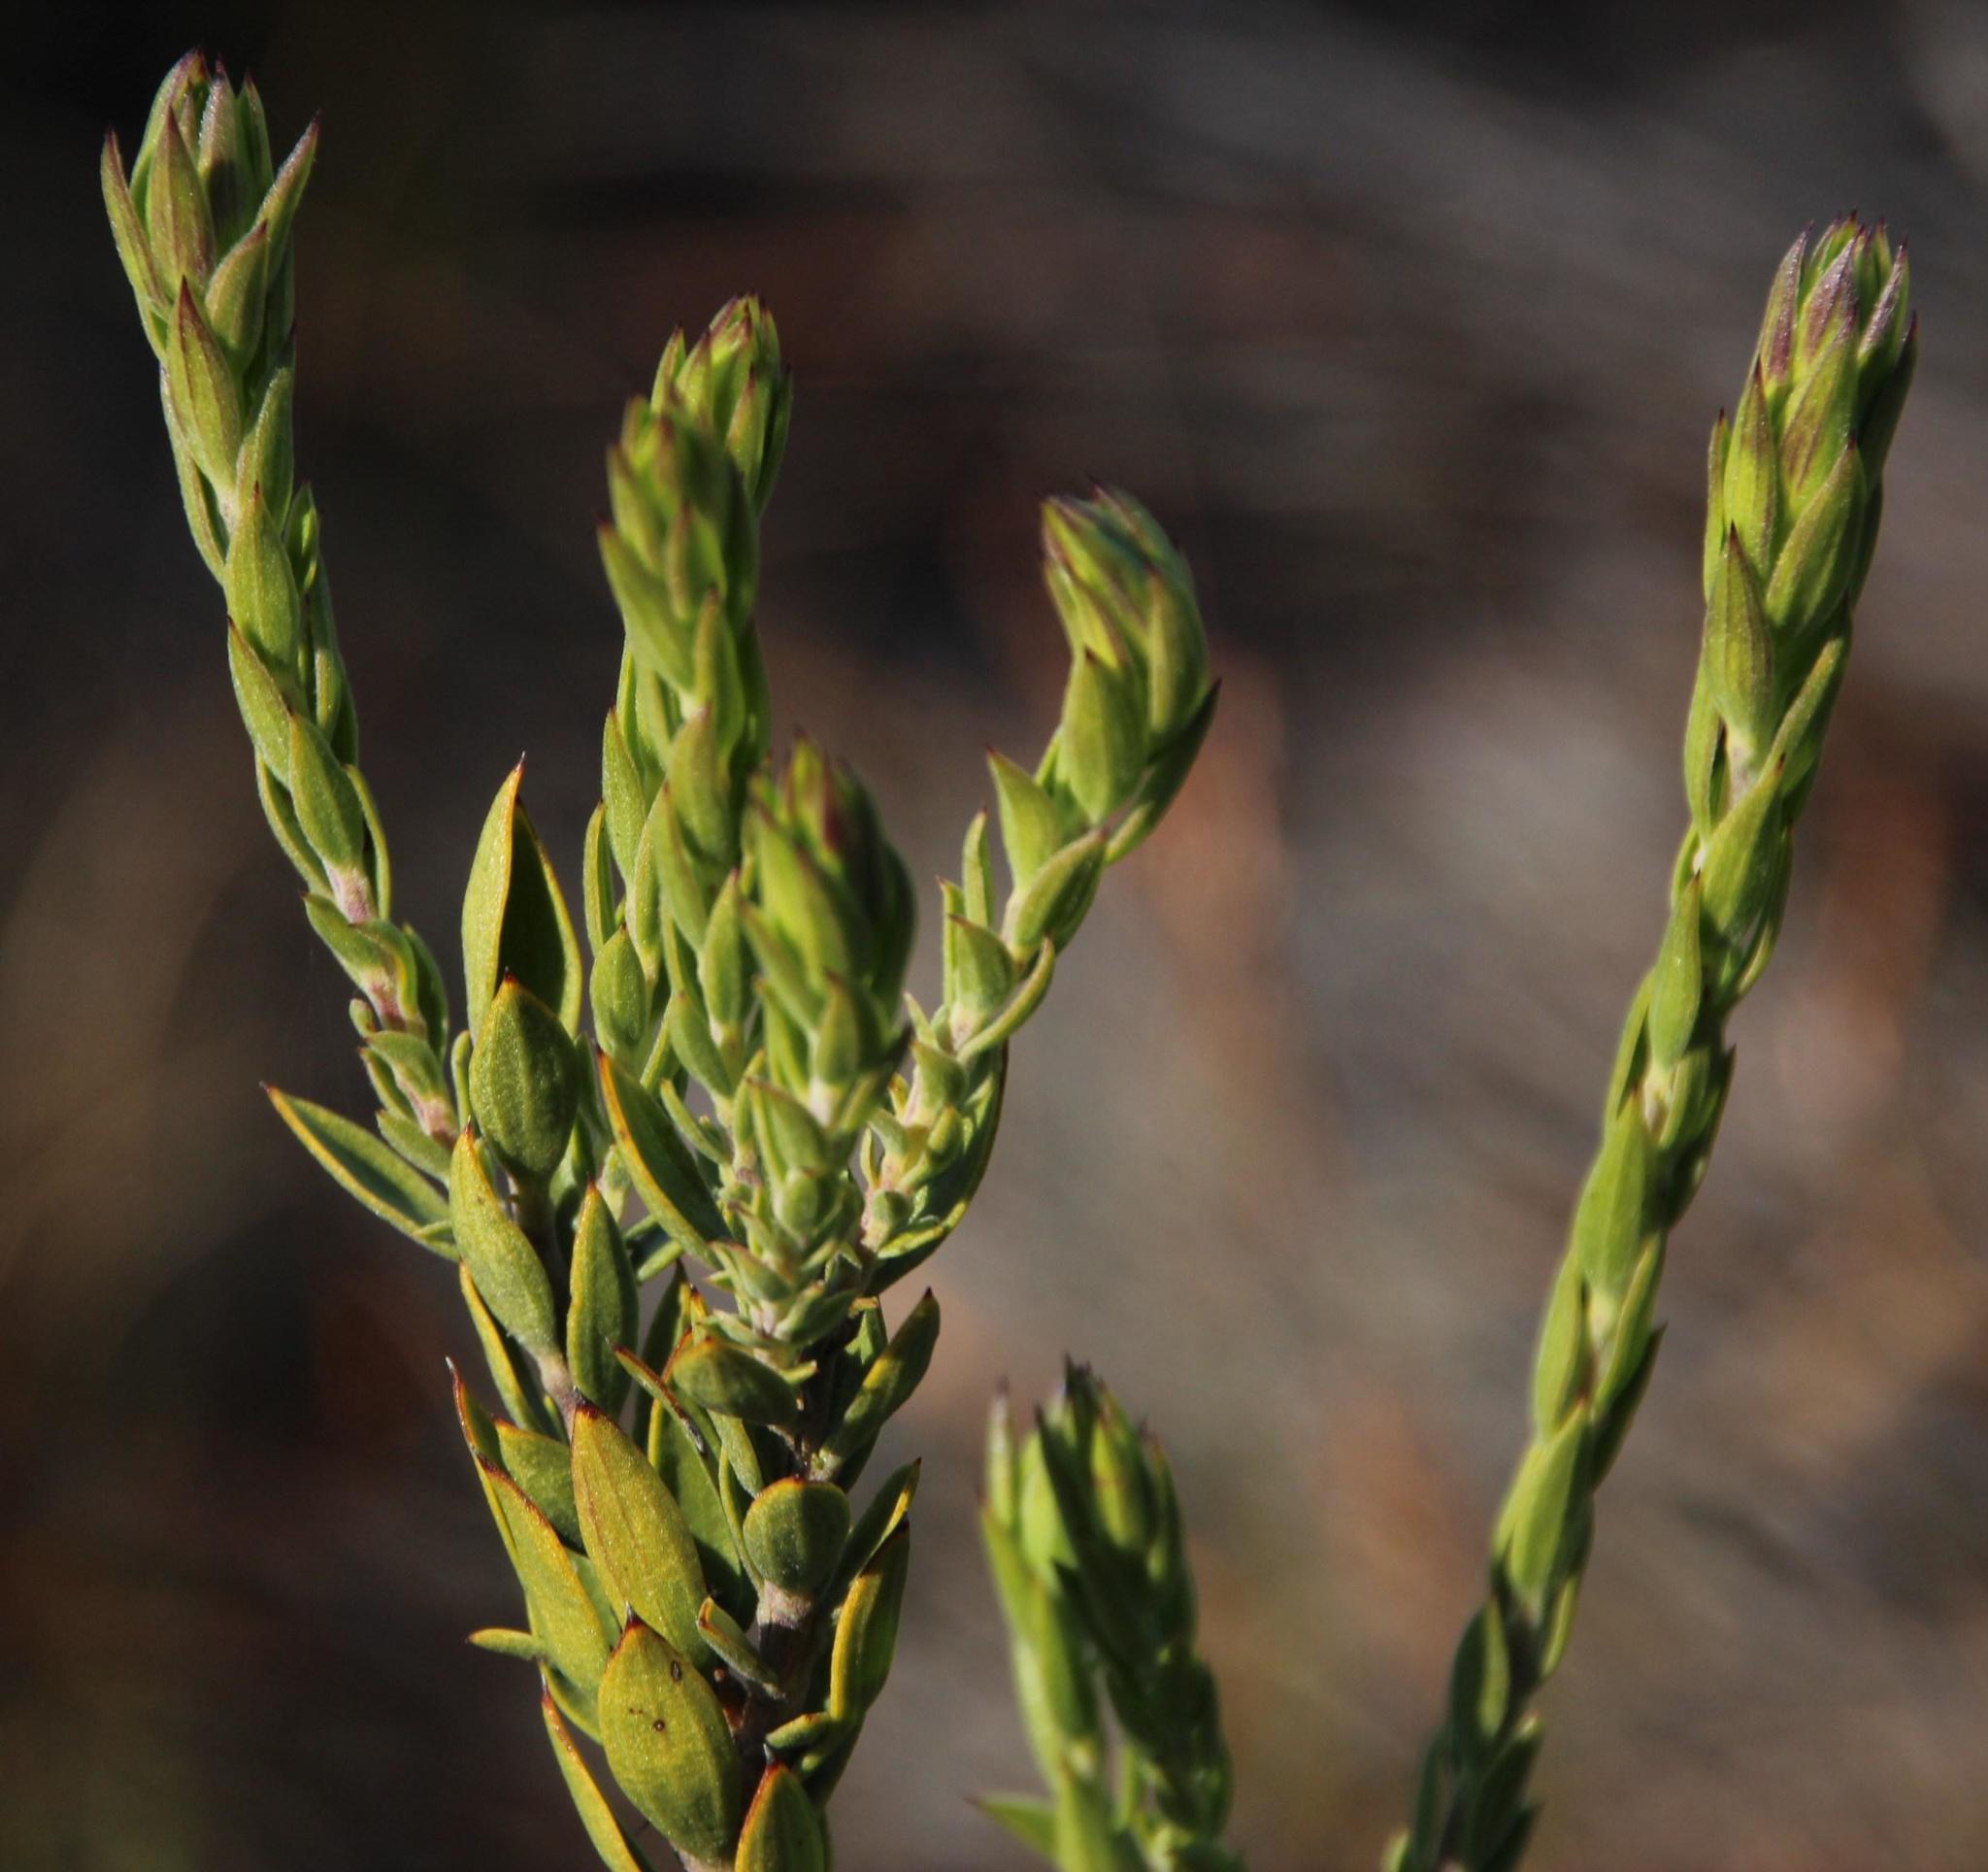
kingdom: Plantae
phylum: Tracheophyta
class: Magnoliopsida
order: Asterales
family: Asteraceae
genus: Oedera
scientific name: Oedera calycina
